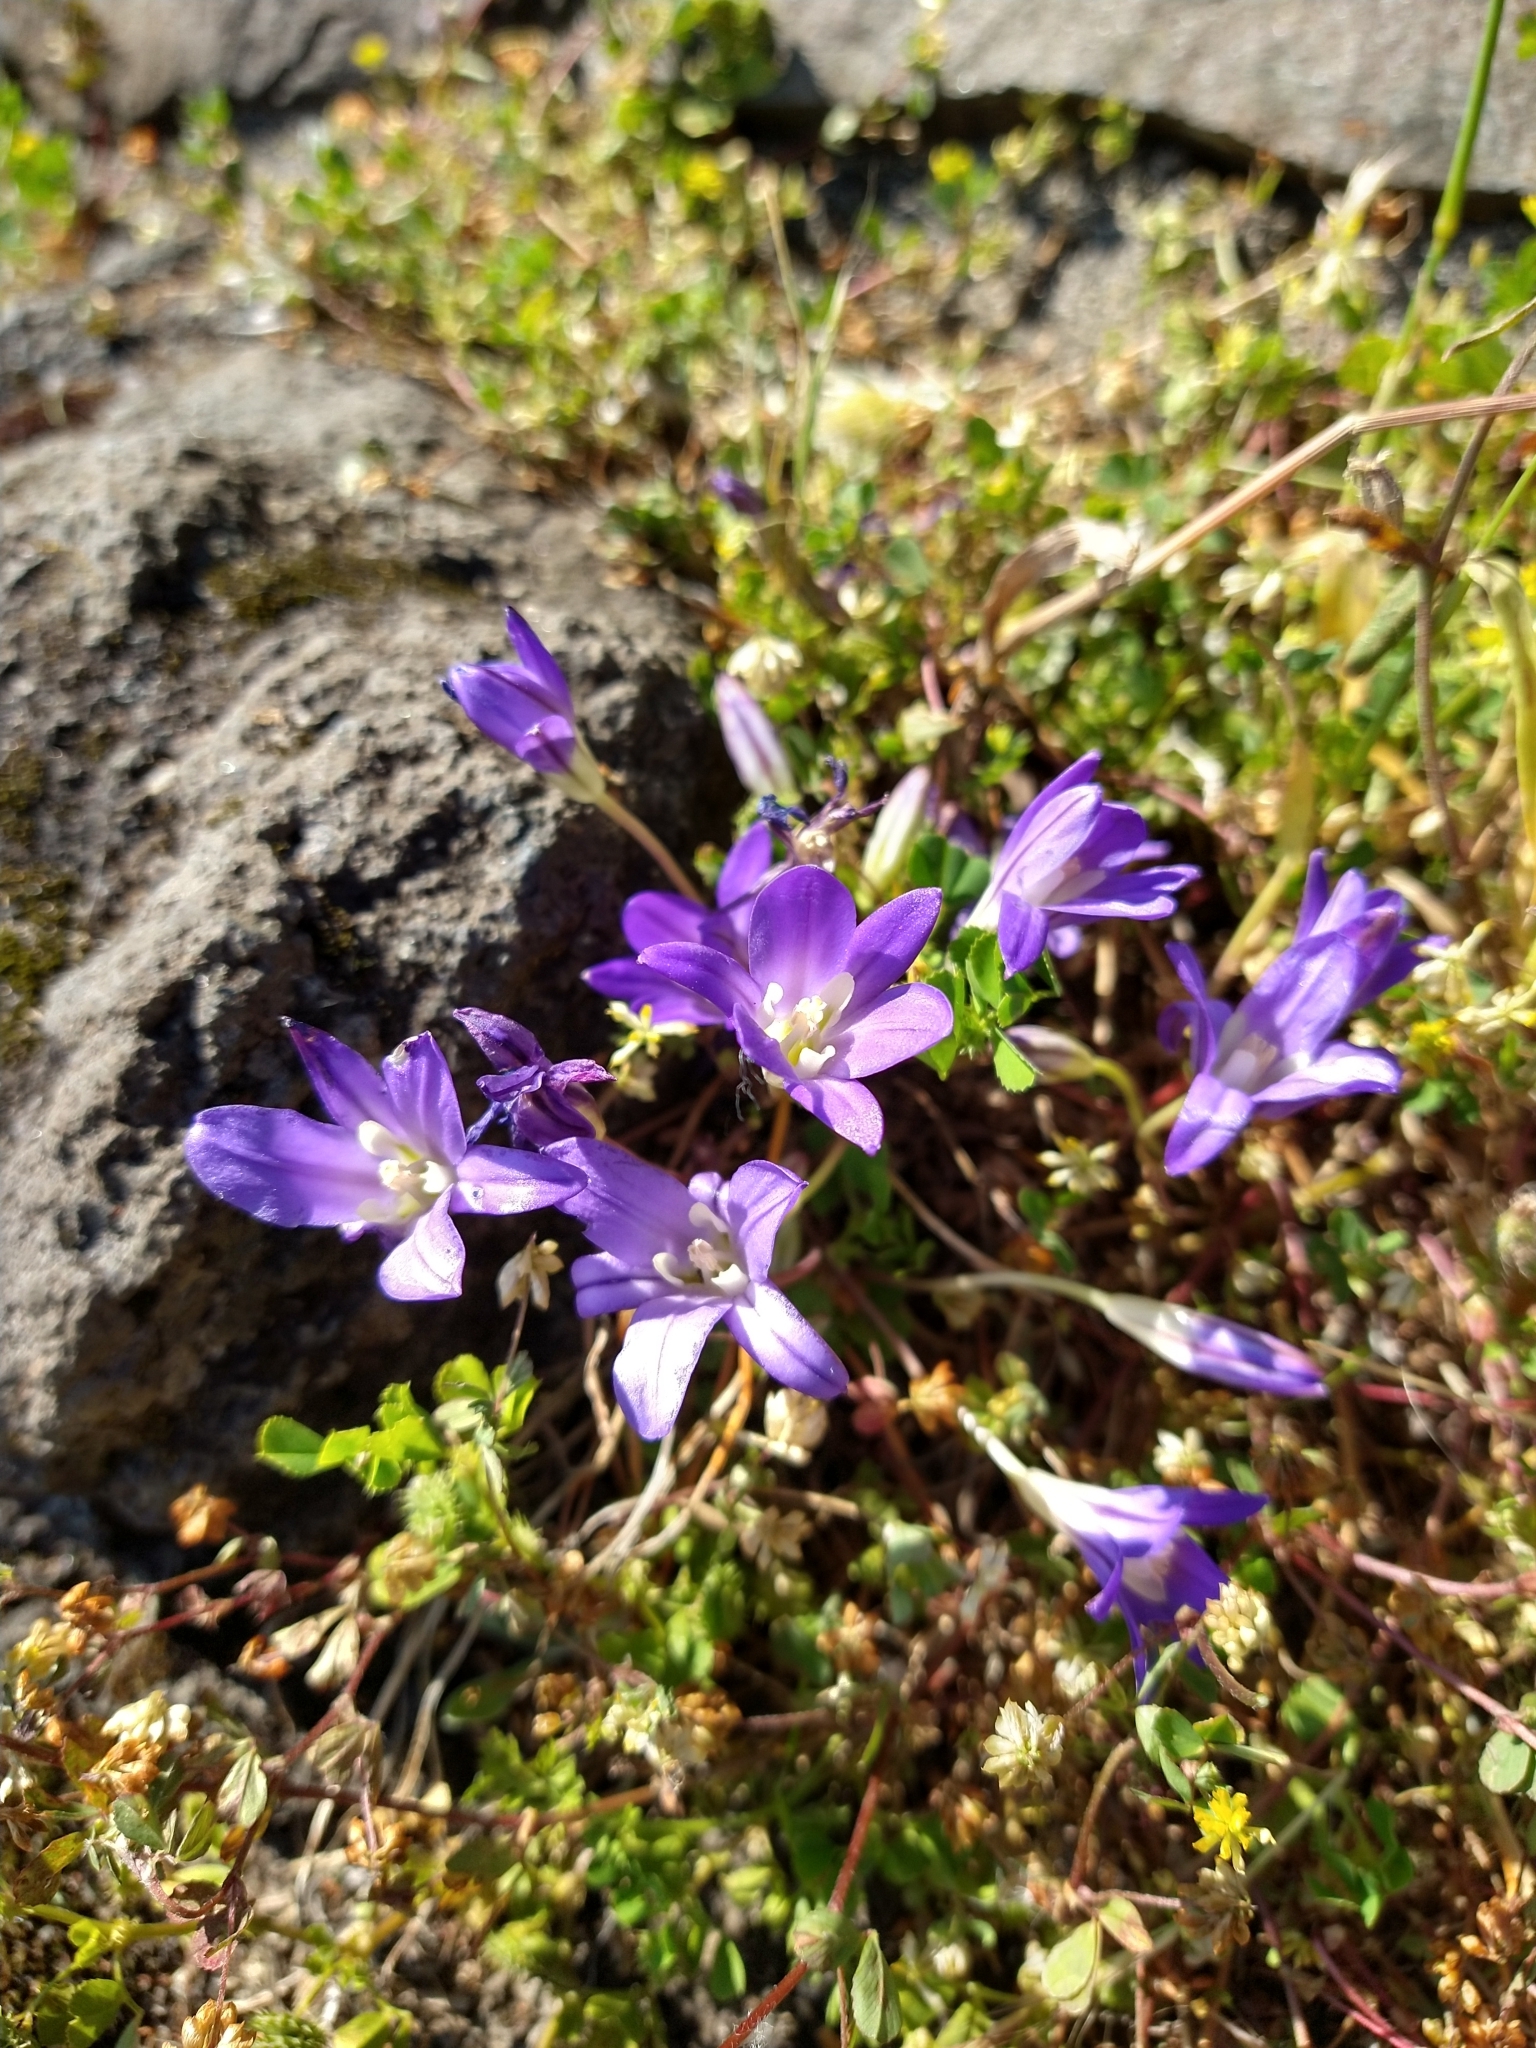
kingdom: Plantae
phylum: Tracheophyta
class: Liliopsida
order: Asparagales
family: Asparagaceae
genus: Brodiaea
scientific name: Brodiaea terrestris
